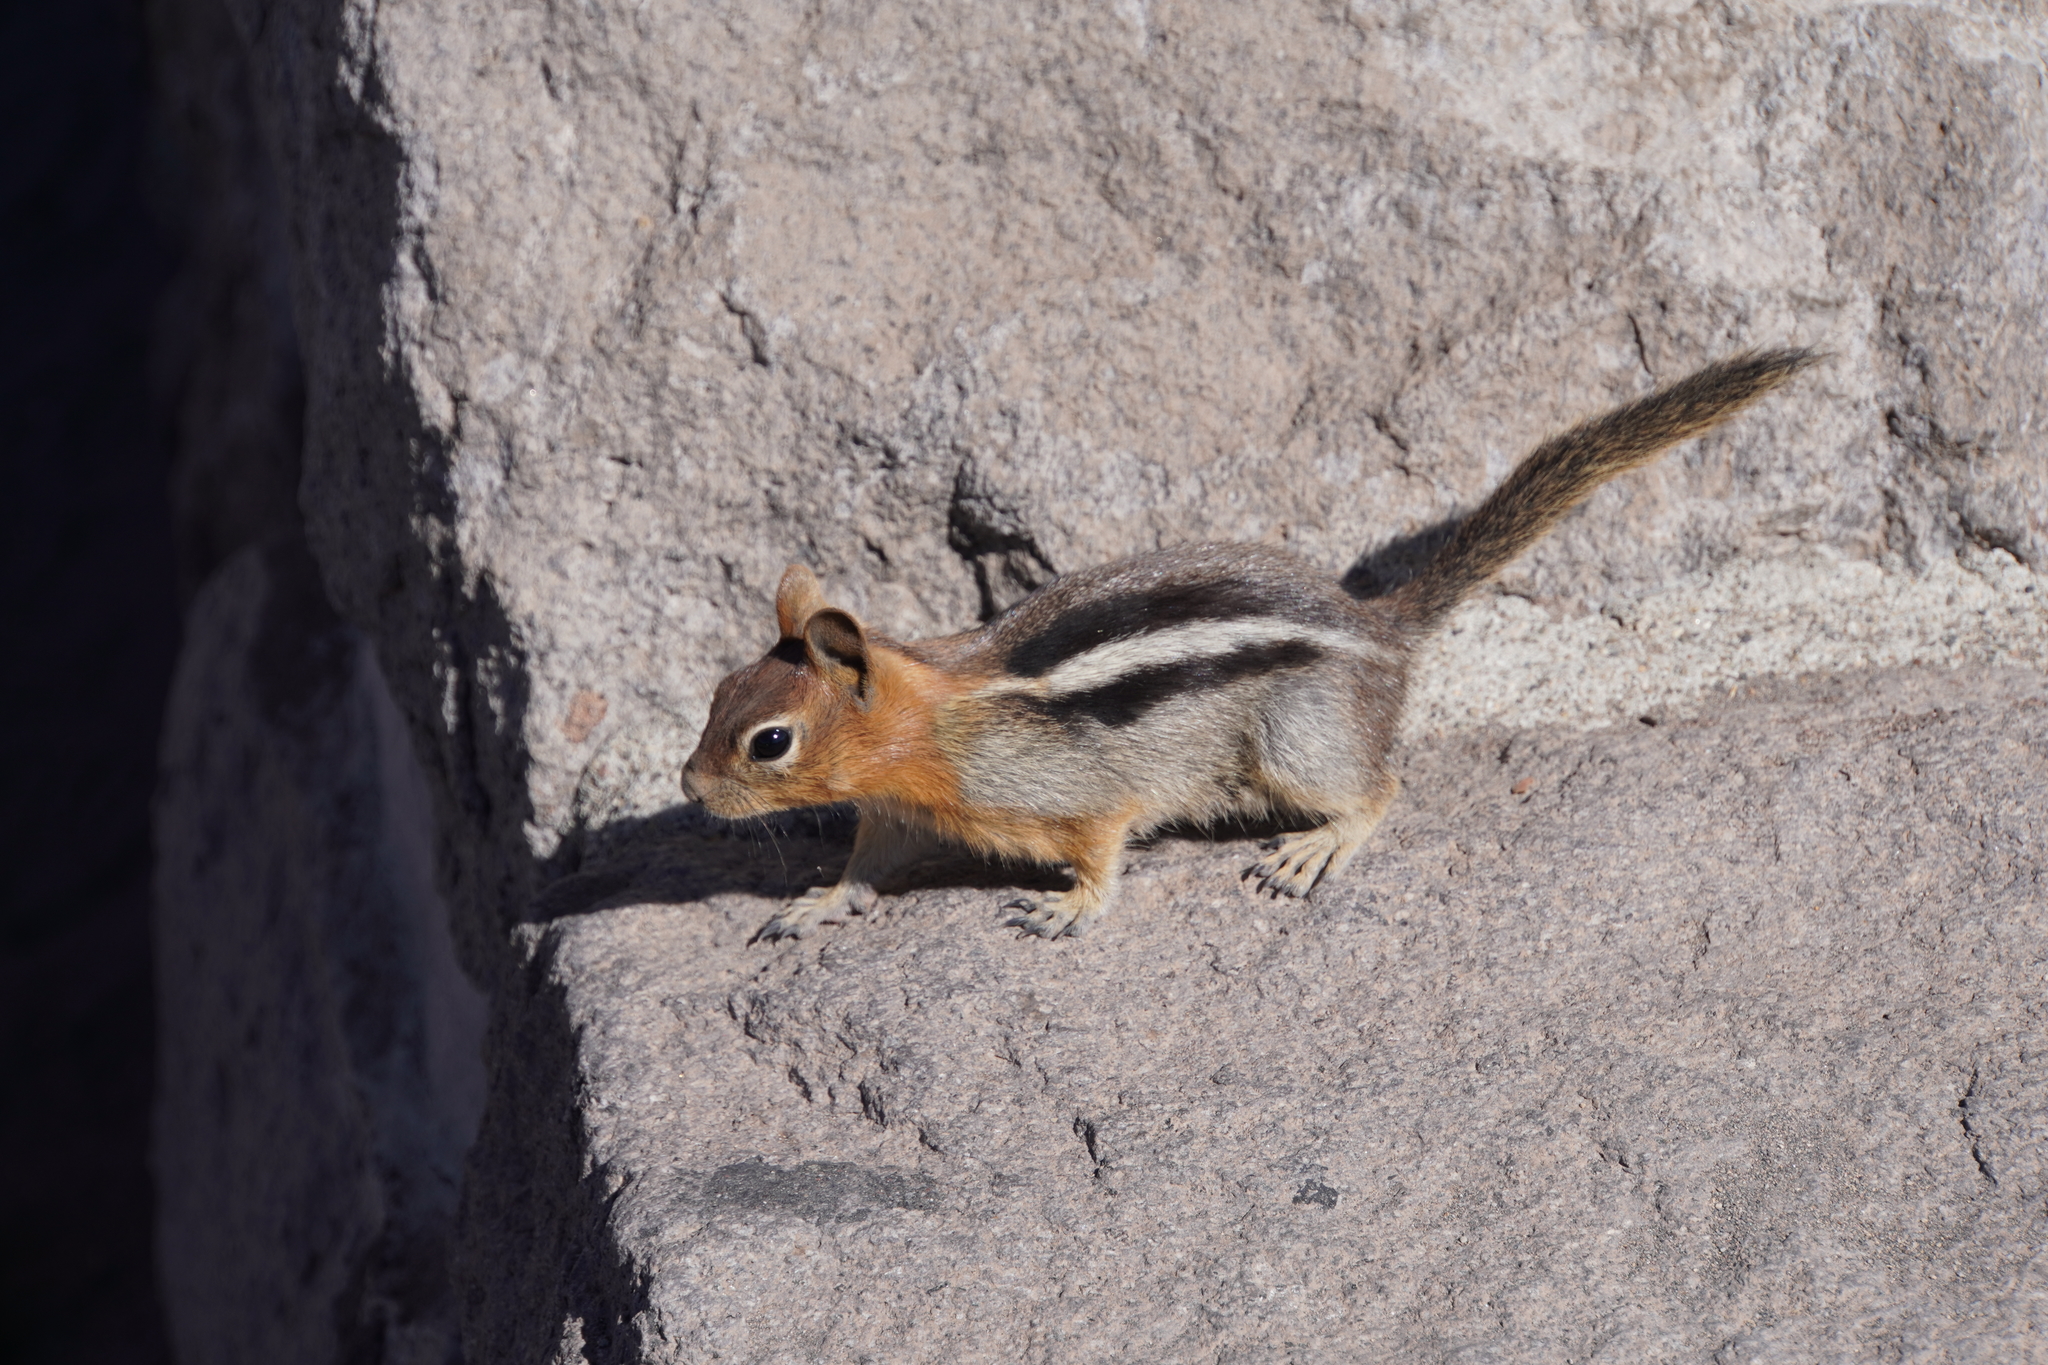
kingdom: Animalia
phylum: Chordata
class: Mammalia
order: Rodentia
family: Sciuridae
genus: Callospermophilus
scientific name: Callospermophilus lateralis
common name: Golden-mantled ground squirrel
